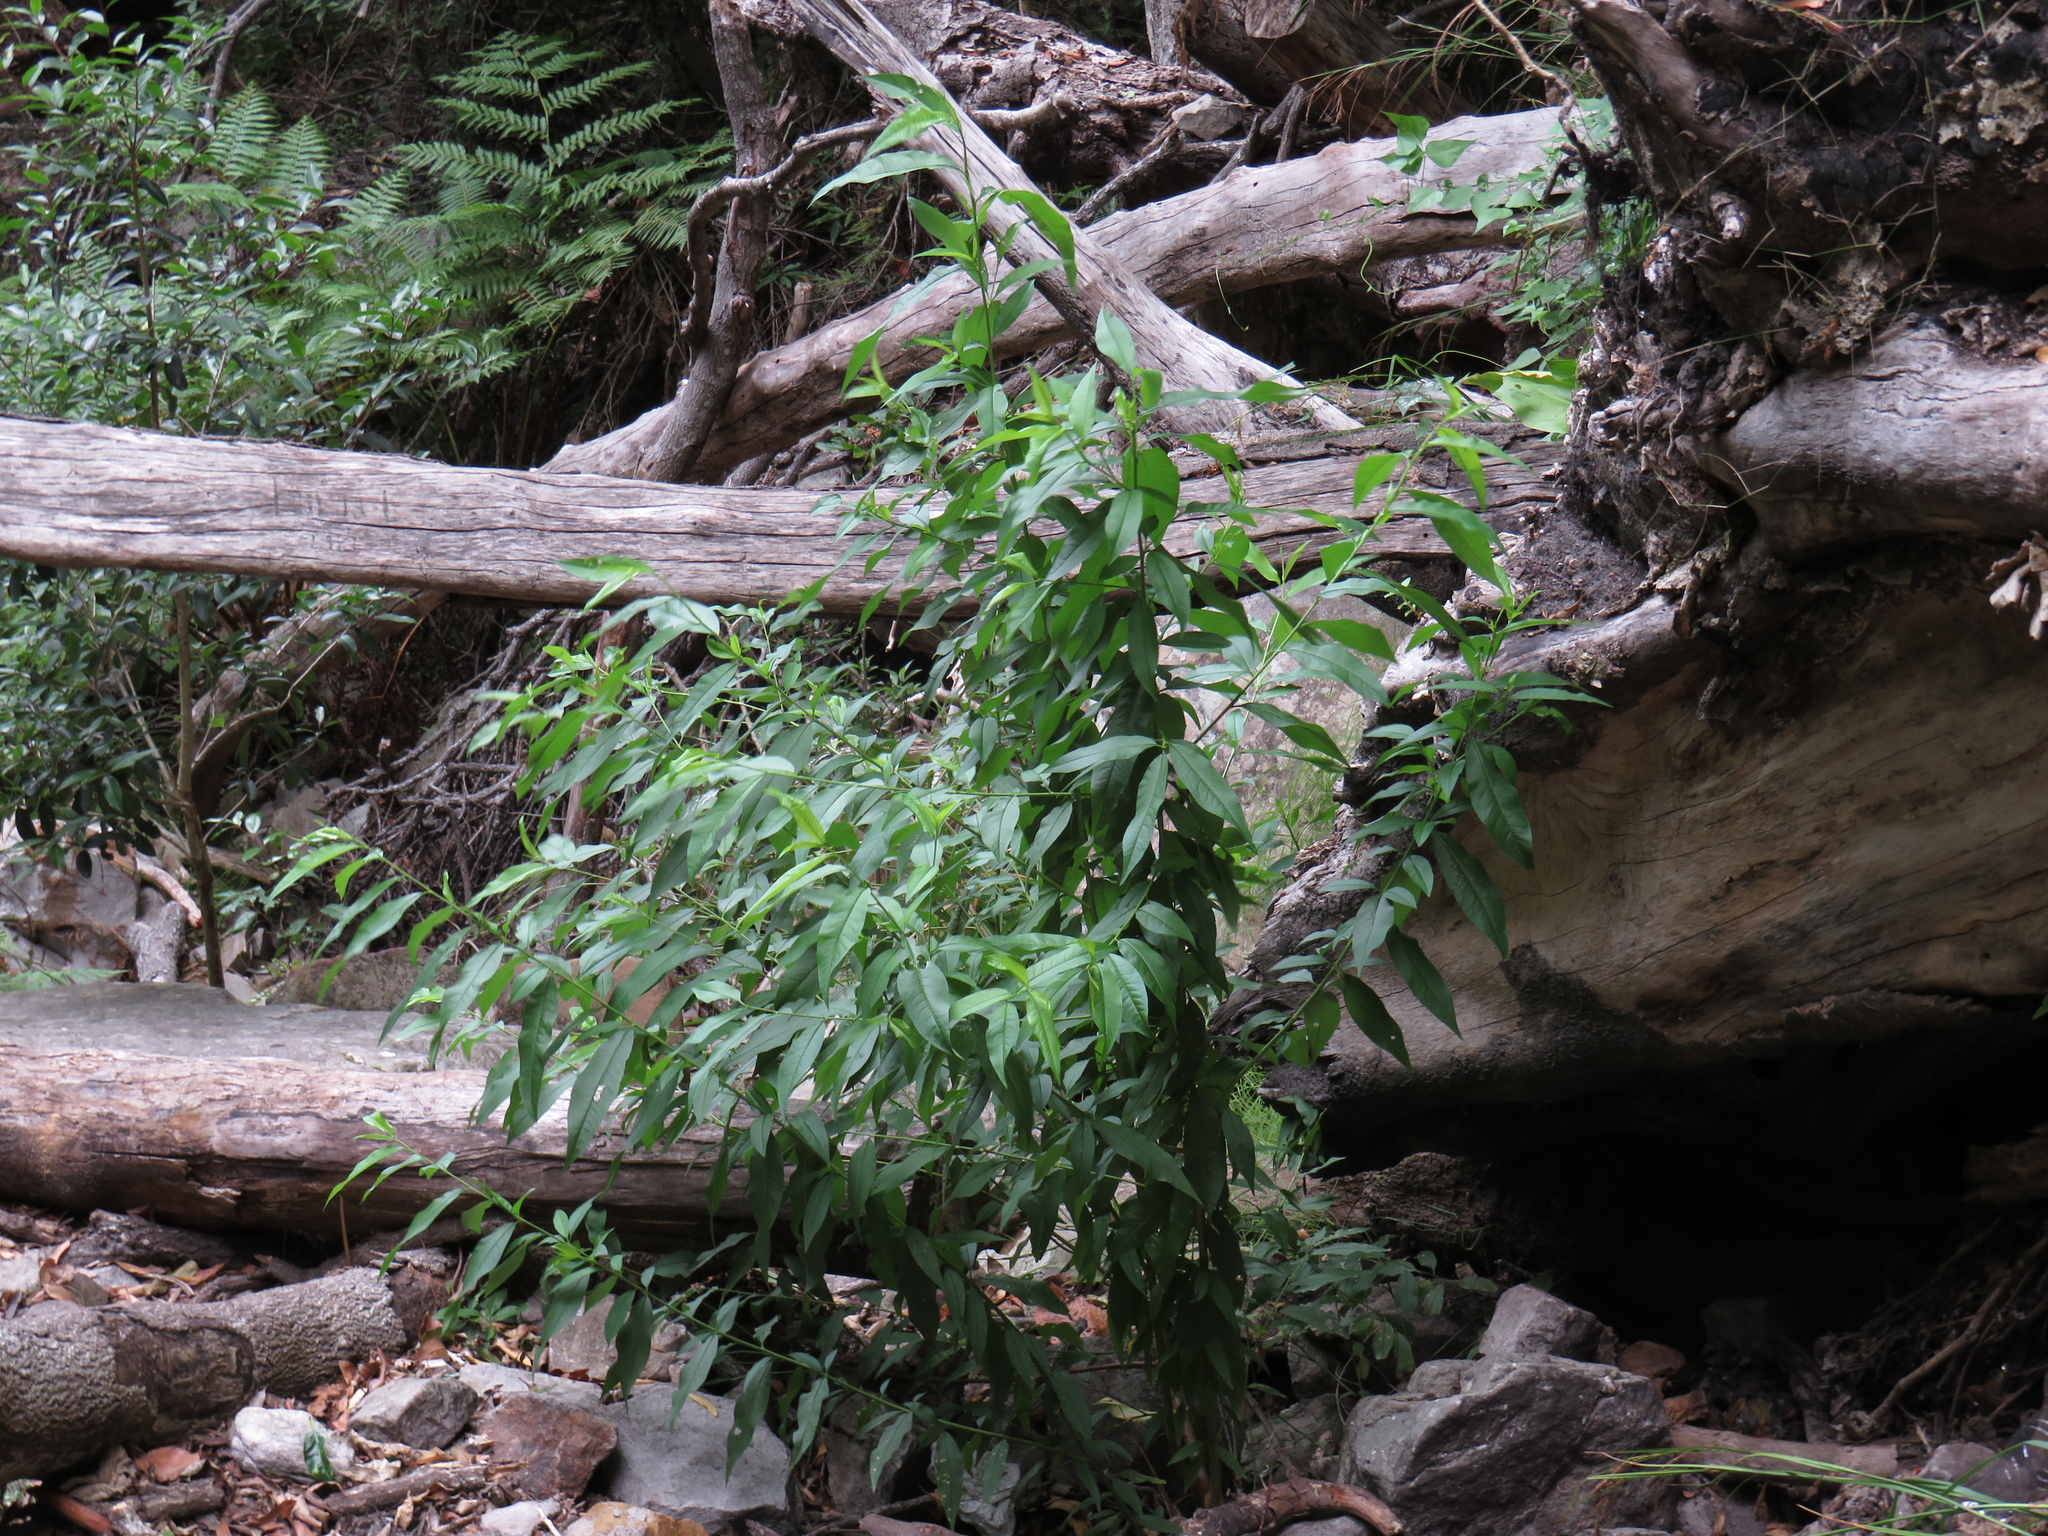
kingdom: Plantae
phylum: Tracheophyta
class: Magnoliopsida
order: Rosales
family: Rosaceae
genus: Prunus
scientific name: Prunus persica
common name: Peach
